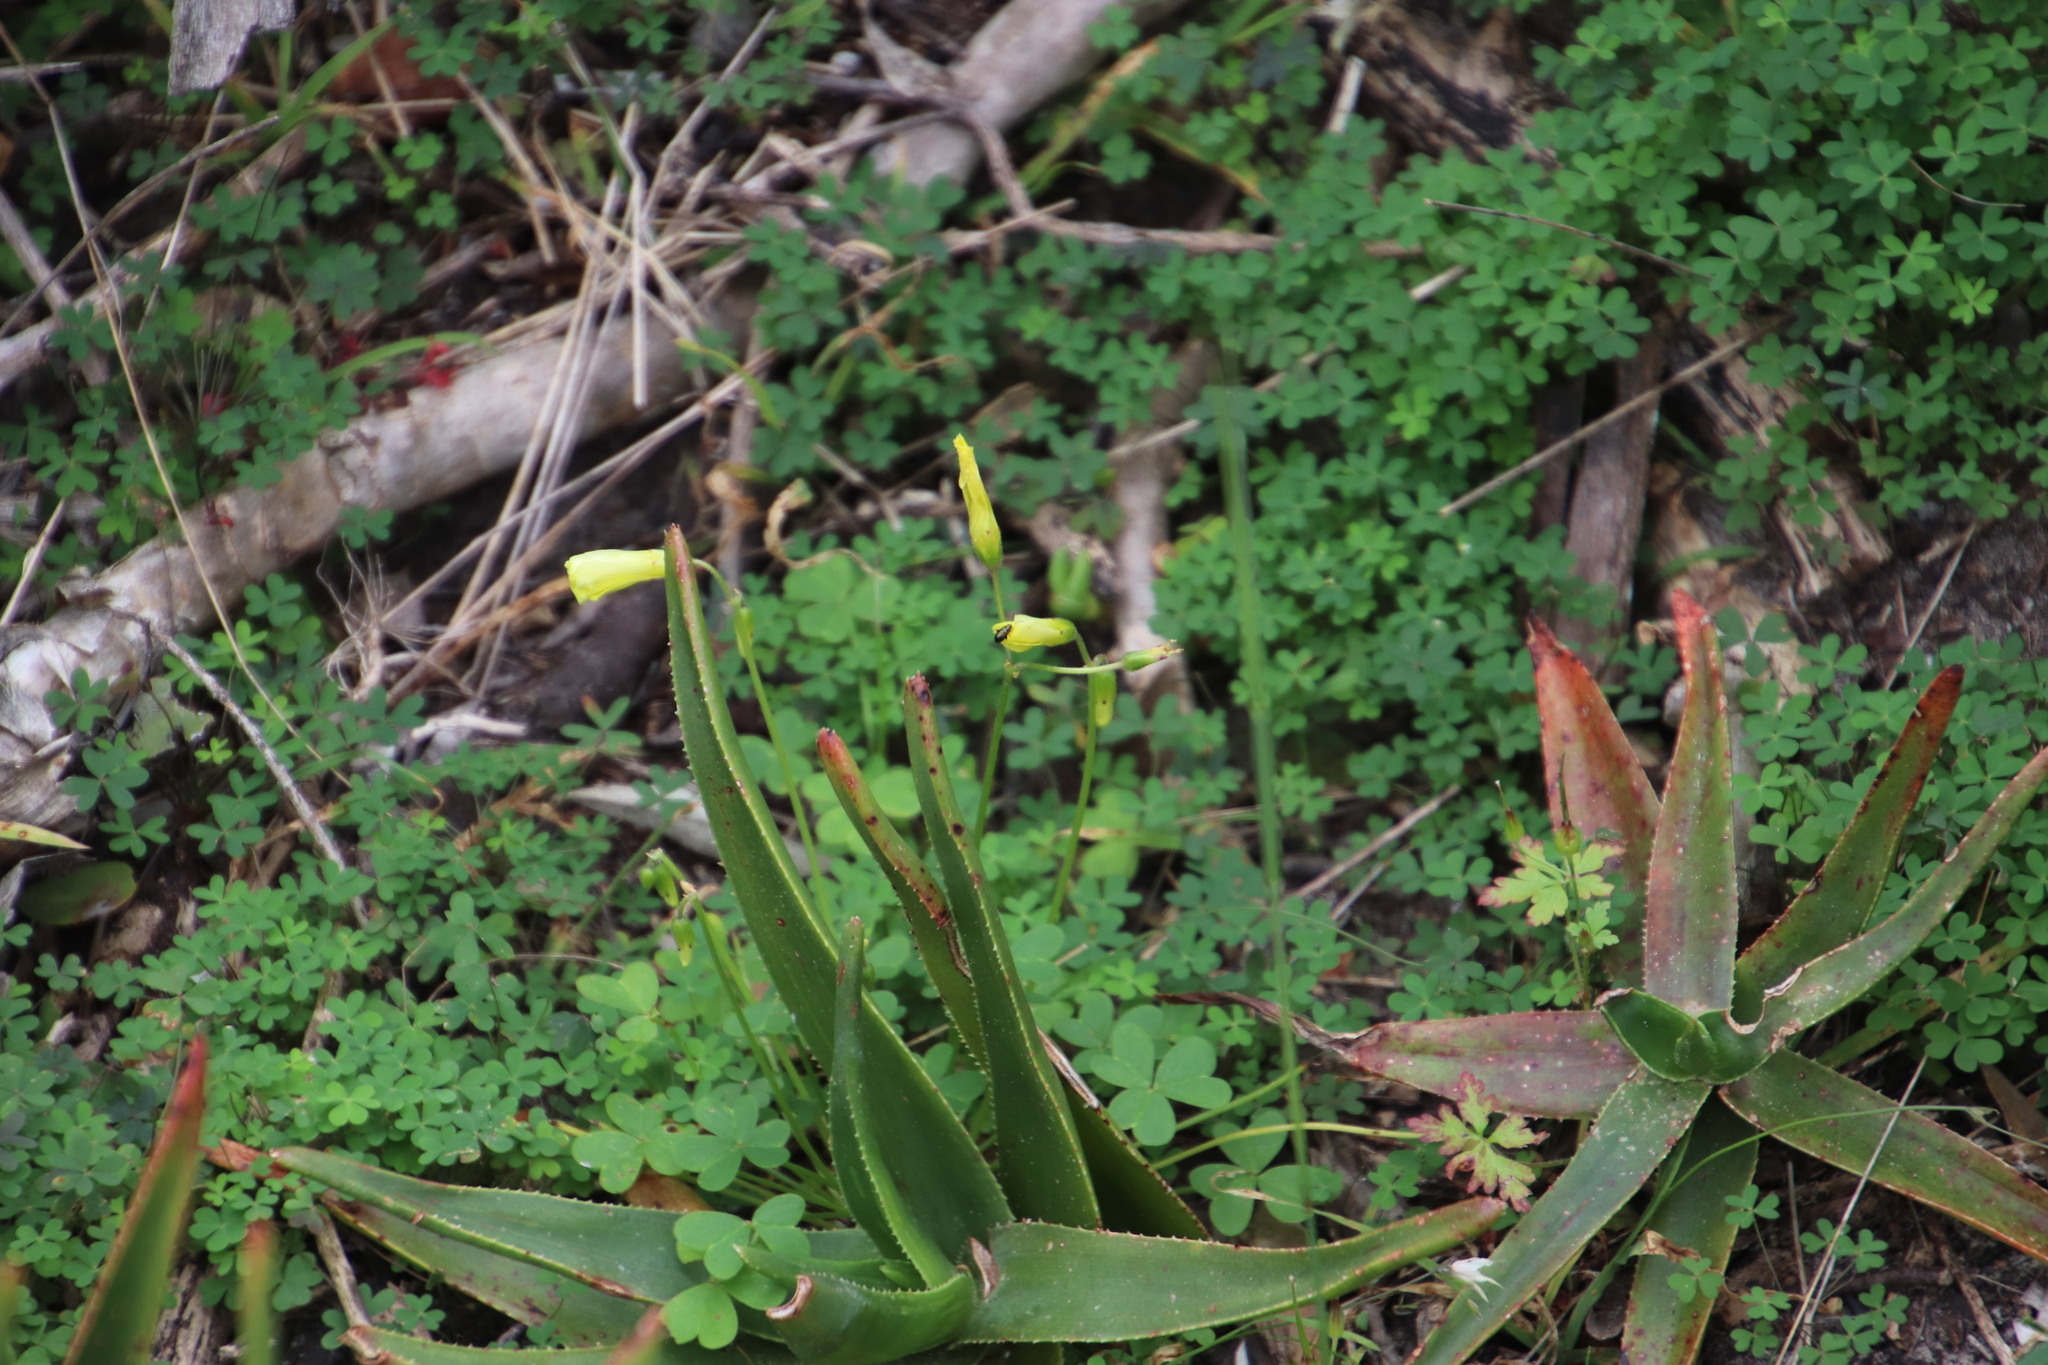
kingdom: Plantae
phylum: Tracheophyta
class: Magnoliopsida
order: Oxalidales
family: Oxalidaceae
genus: Oxalis
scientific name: Oxalis pes-caprae
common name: Bermuda-buttercup
